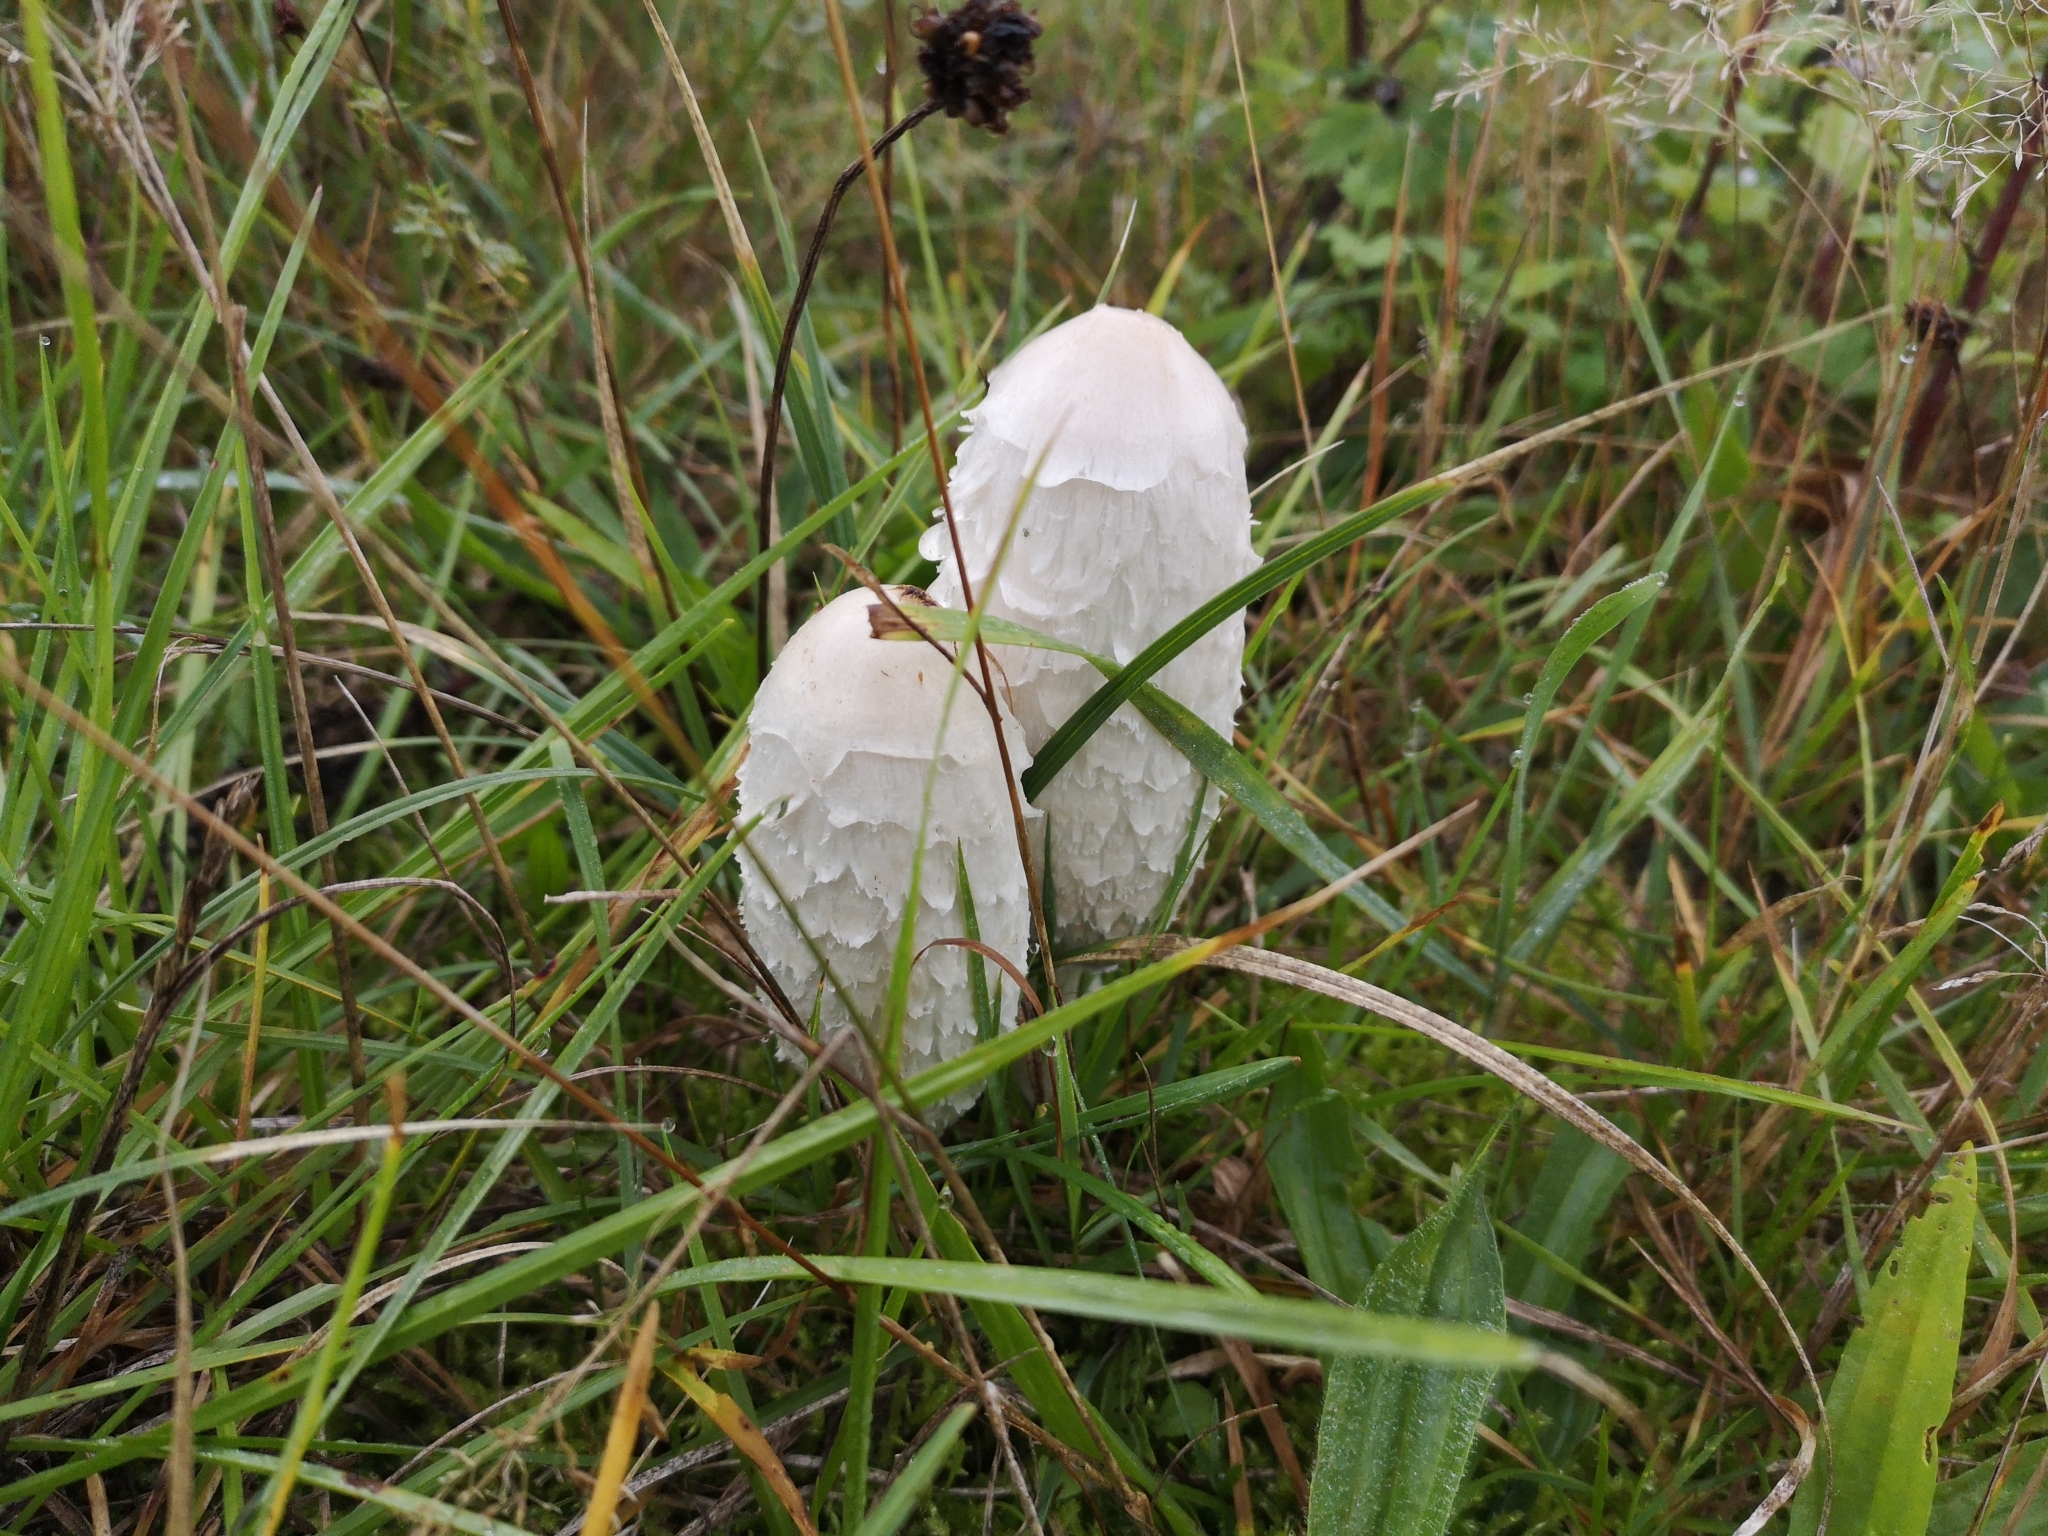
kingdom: Fungi
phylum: Basidiomycota
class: Agaricomycetes
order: Agaricales
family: Agaricaceae
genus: Coprinus
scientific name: Coprinus comatus
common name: Lawyer's wig
